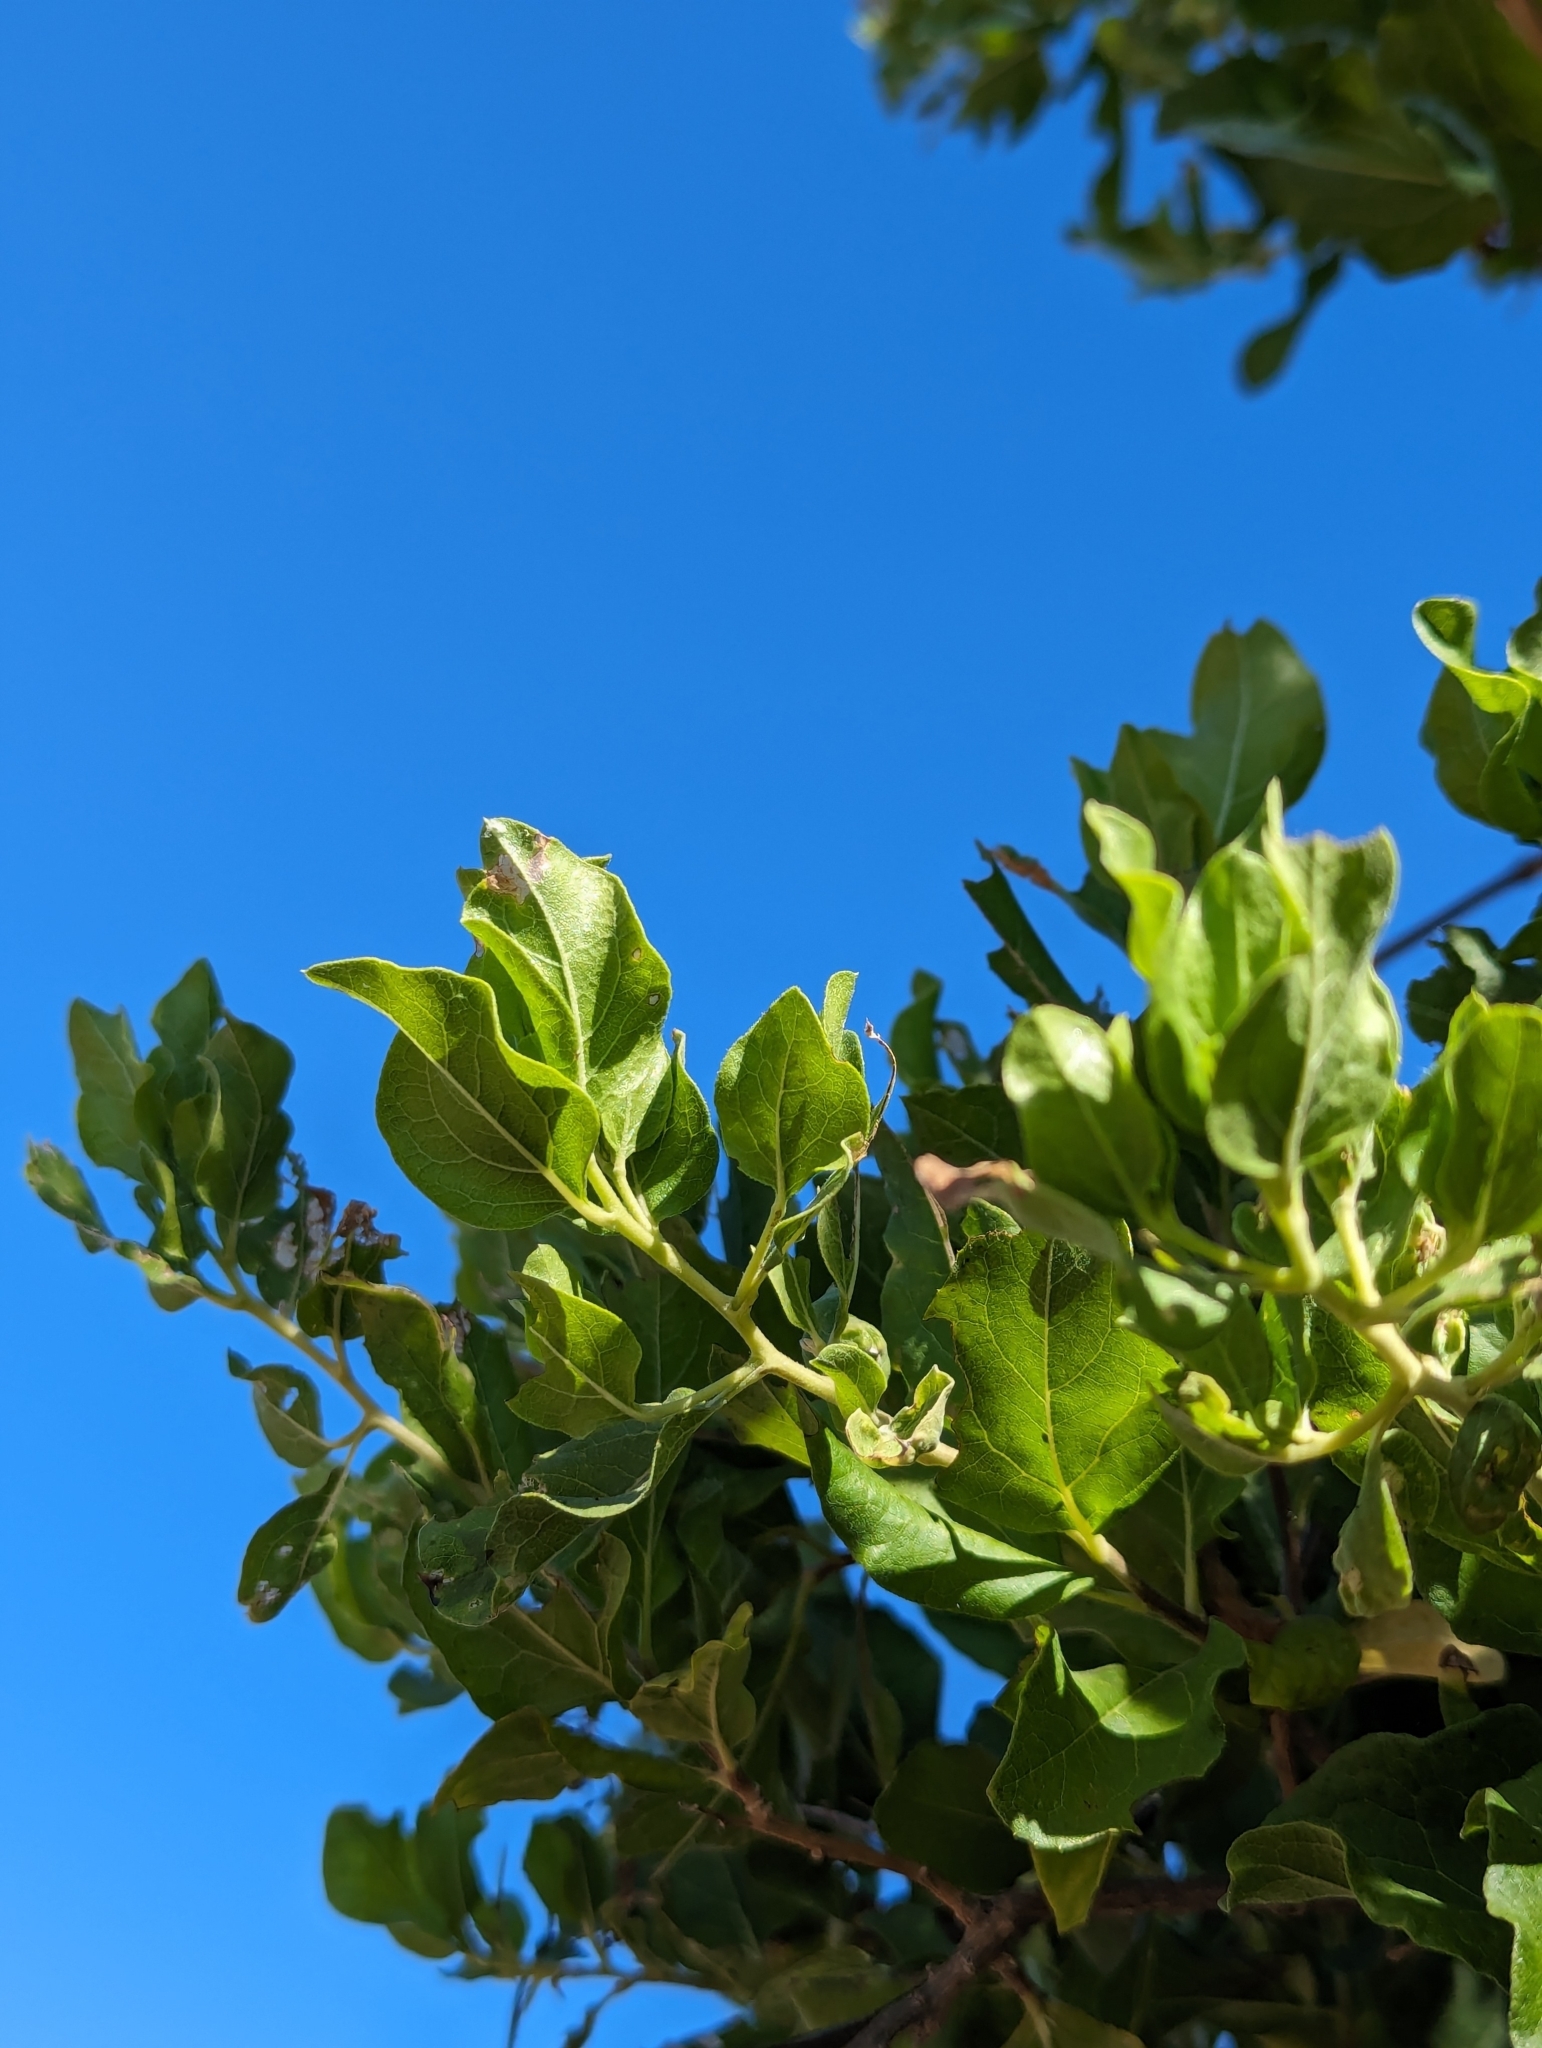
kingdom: Plantae
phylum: Tracheophyta
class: Magnoliopsida
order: Asterales
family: Asteraceae
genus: Nahuatlea
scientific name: Nahuatlea arborescens
